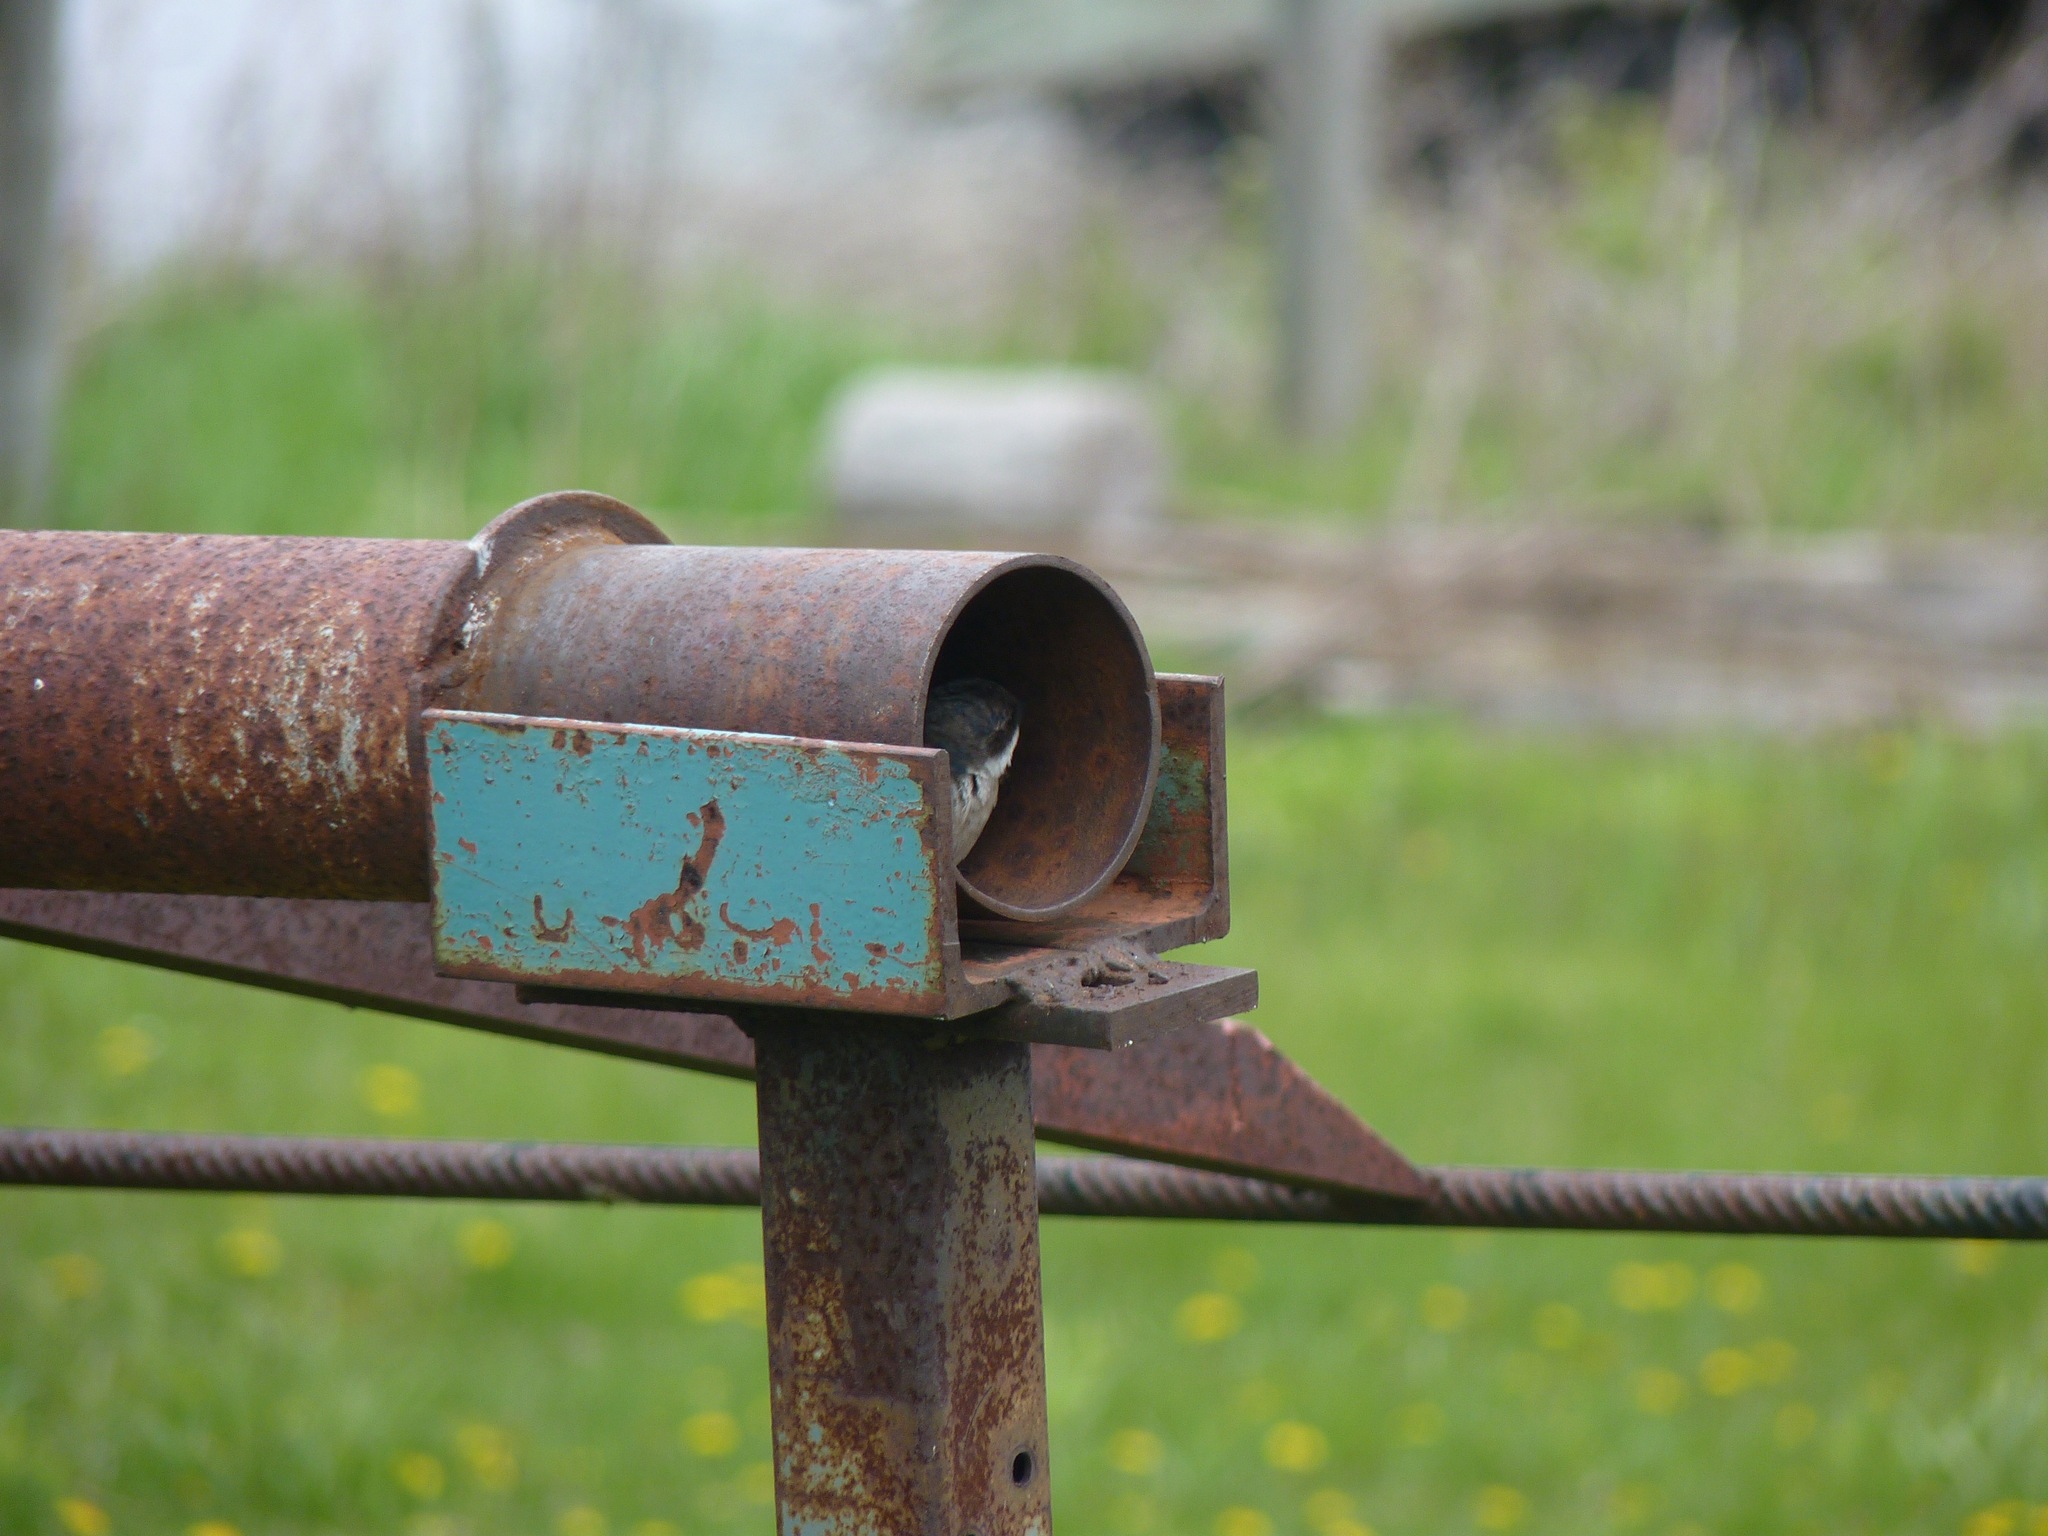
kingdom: Animalia
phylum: Chordata
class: Aves
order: Passeriformes
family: Hirundinidae
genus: Tachycineta
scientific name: Tachycineta bicolor
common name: Tree swallow
